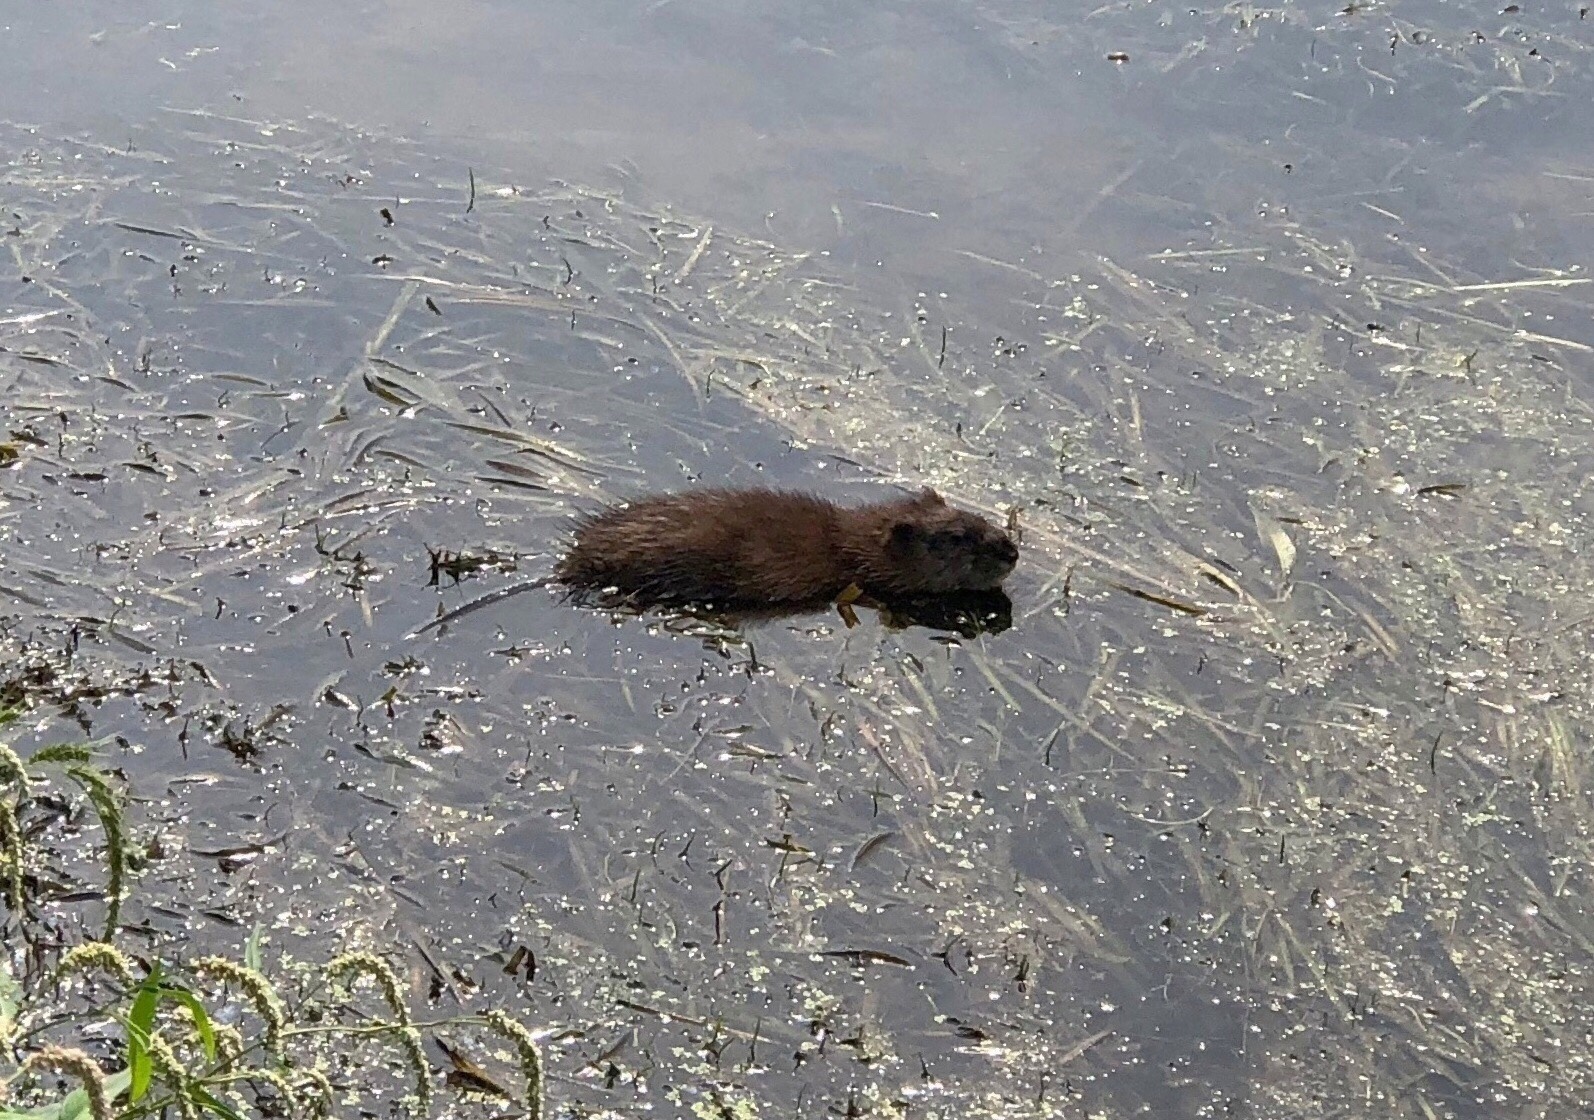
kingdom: Animalia
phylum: Chordata
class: Mammalia
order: Rodentia
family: Cricetidae
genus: Ondatra
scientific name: Ondatra zibethicus
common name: Muskrat
